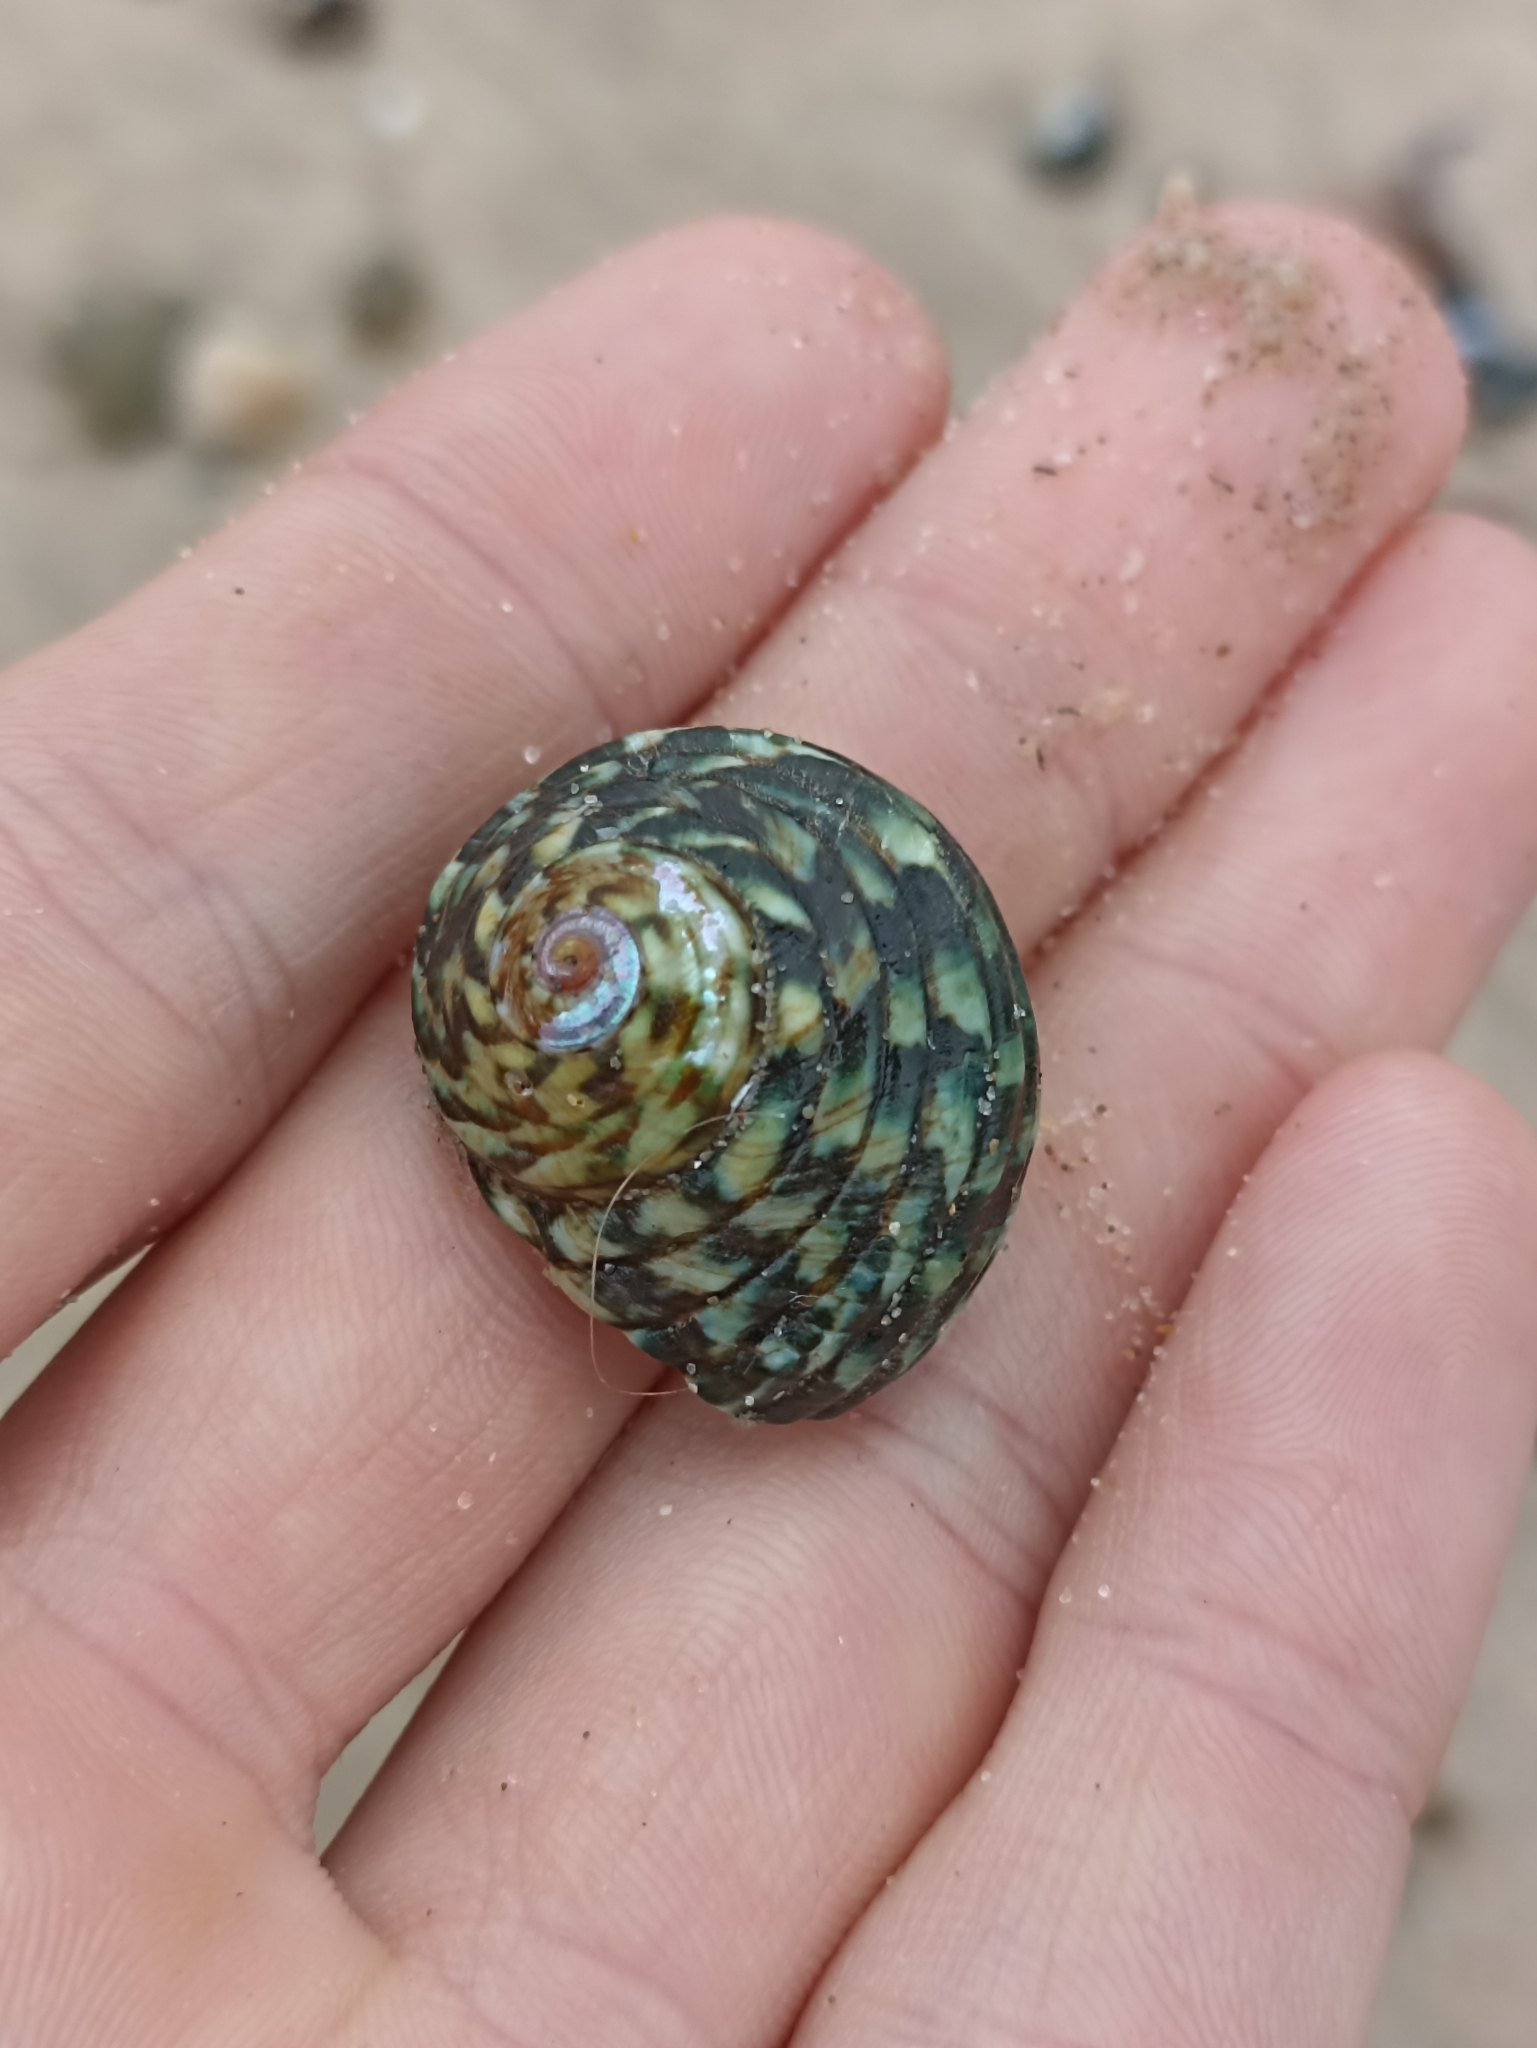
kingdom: Animalia
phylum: Mollusca
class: Gastropoda
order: Trochida
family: Turbinidae
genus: Lunella
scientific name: Lunella undulata
